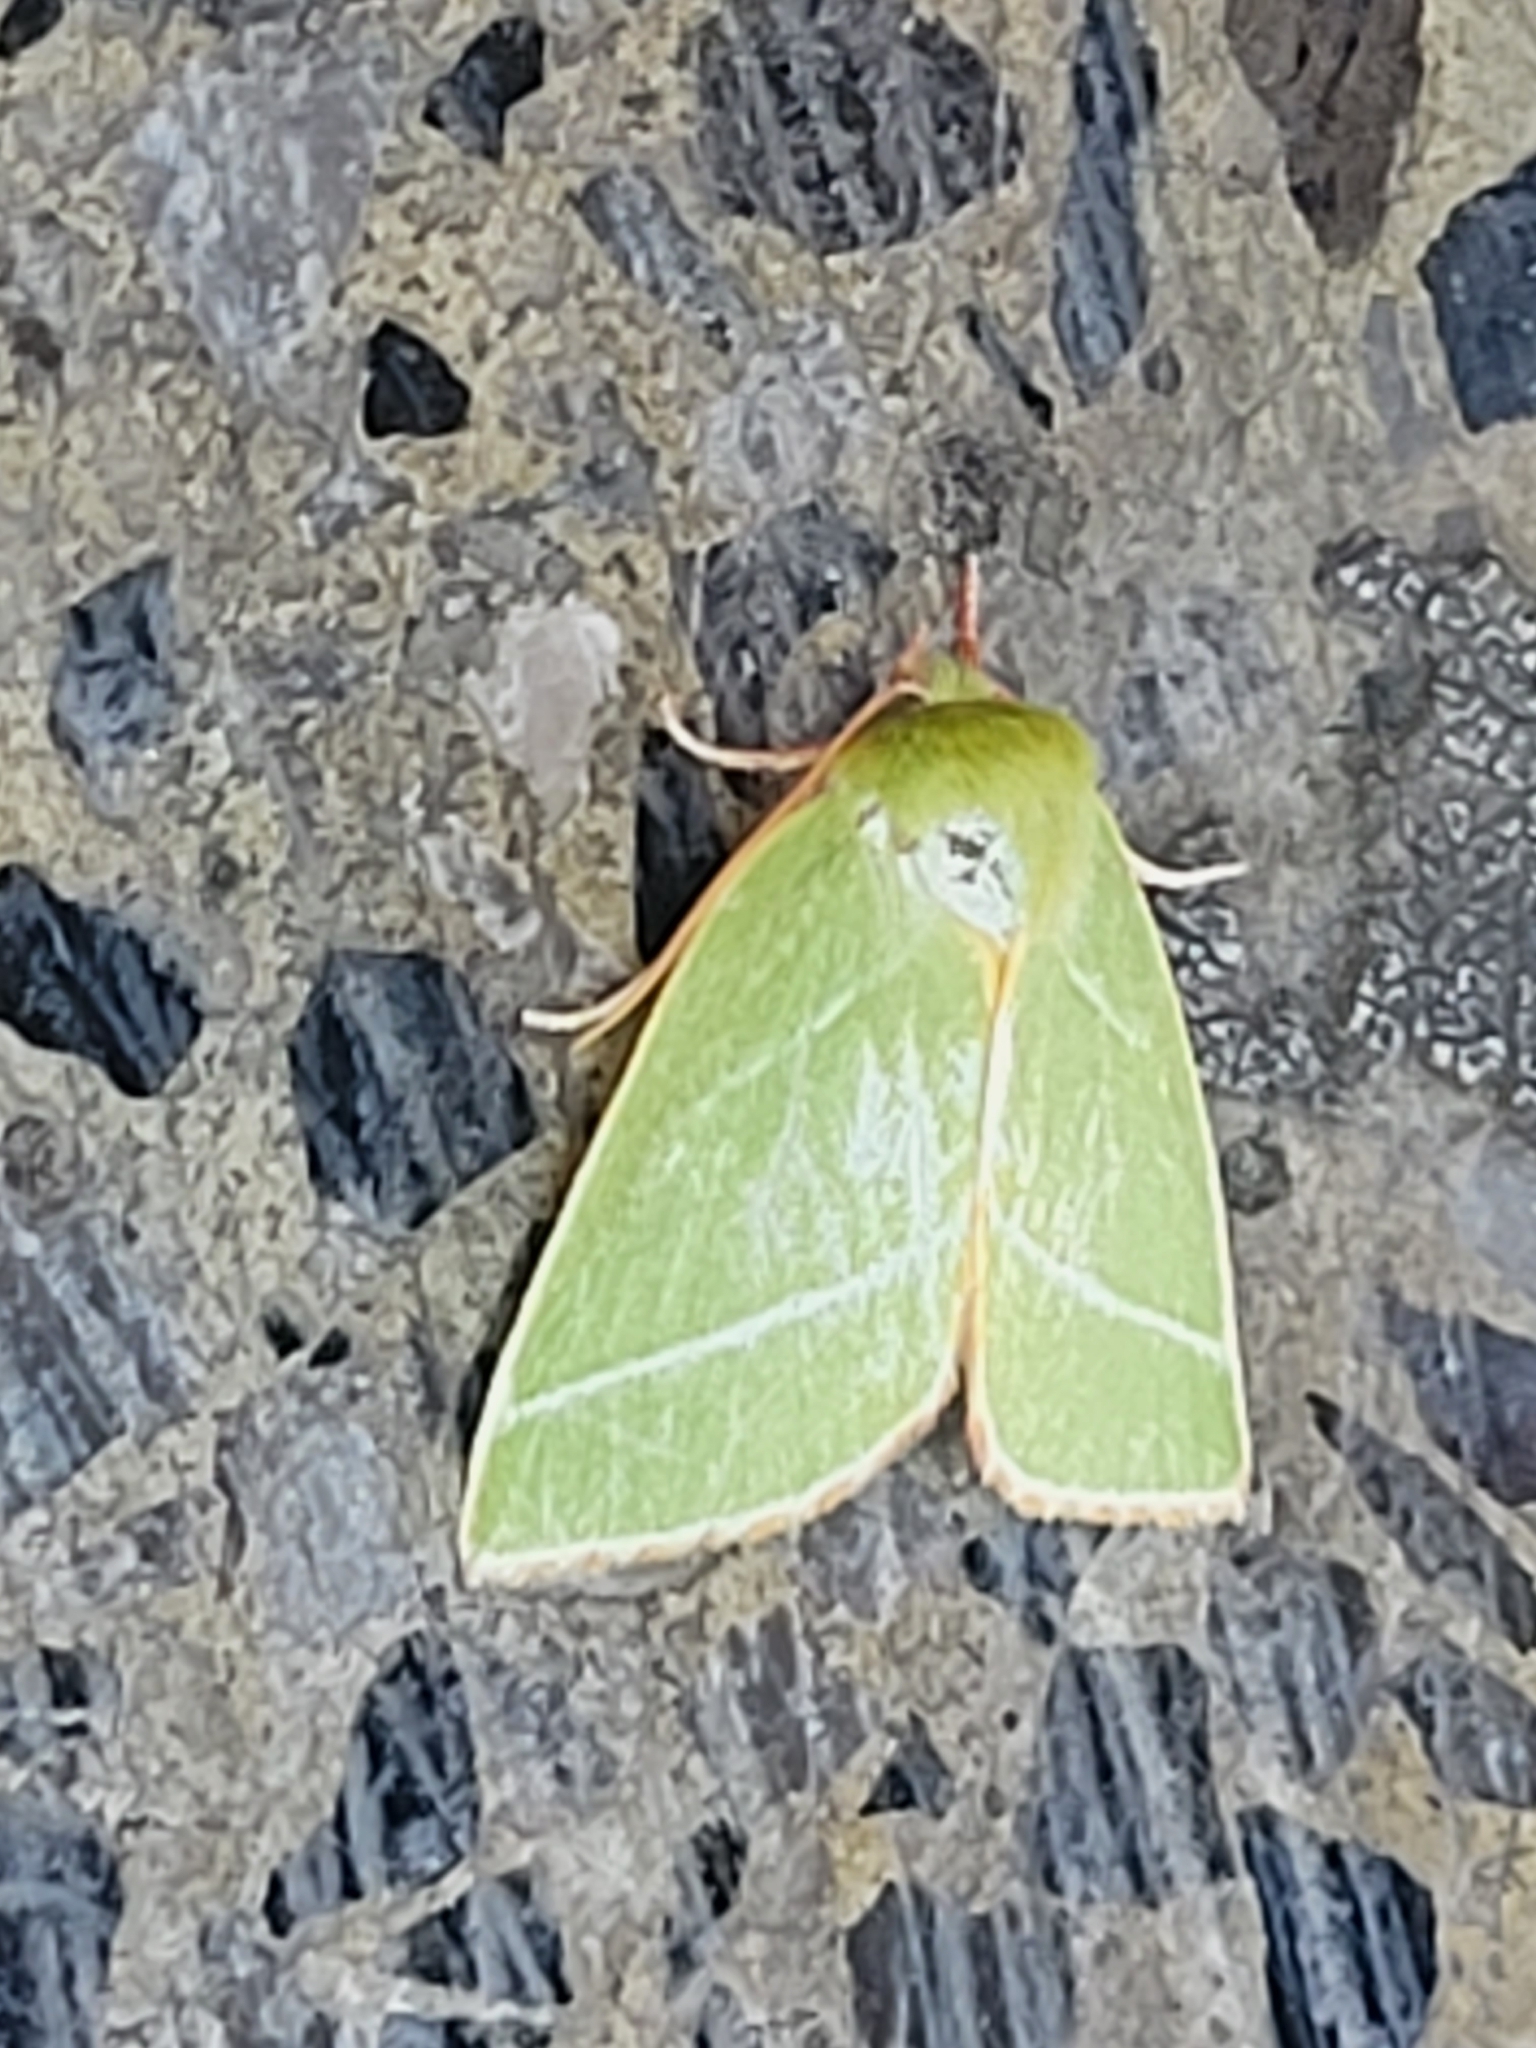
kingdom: Animalia
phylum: Arthropoda
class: Insecta
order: Lepidoptera
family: Nolidae
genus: Pseudoips
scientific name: Pseudoips prasinana
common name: Green silver-lines
